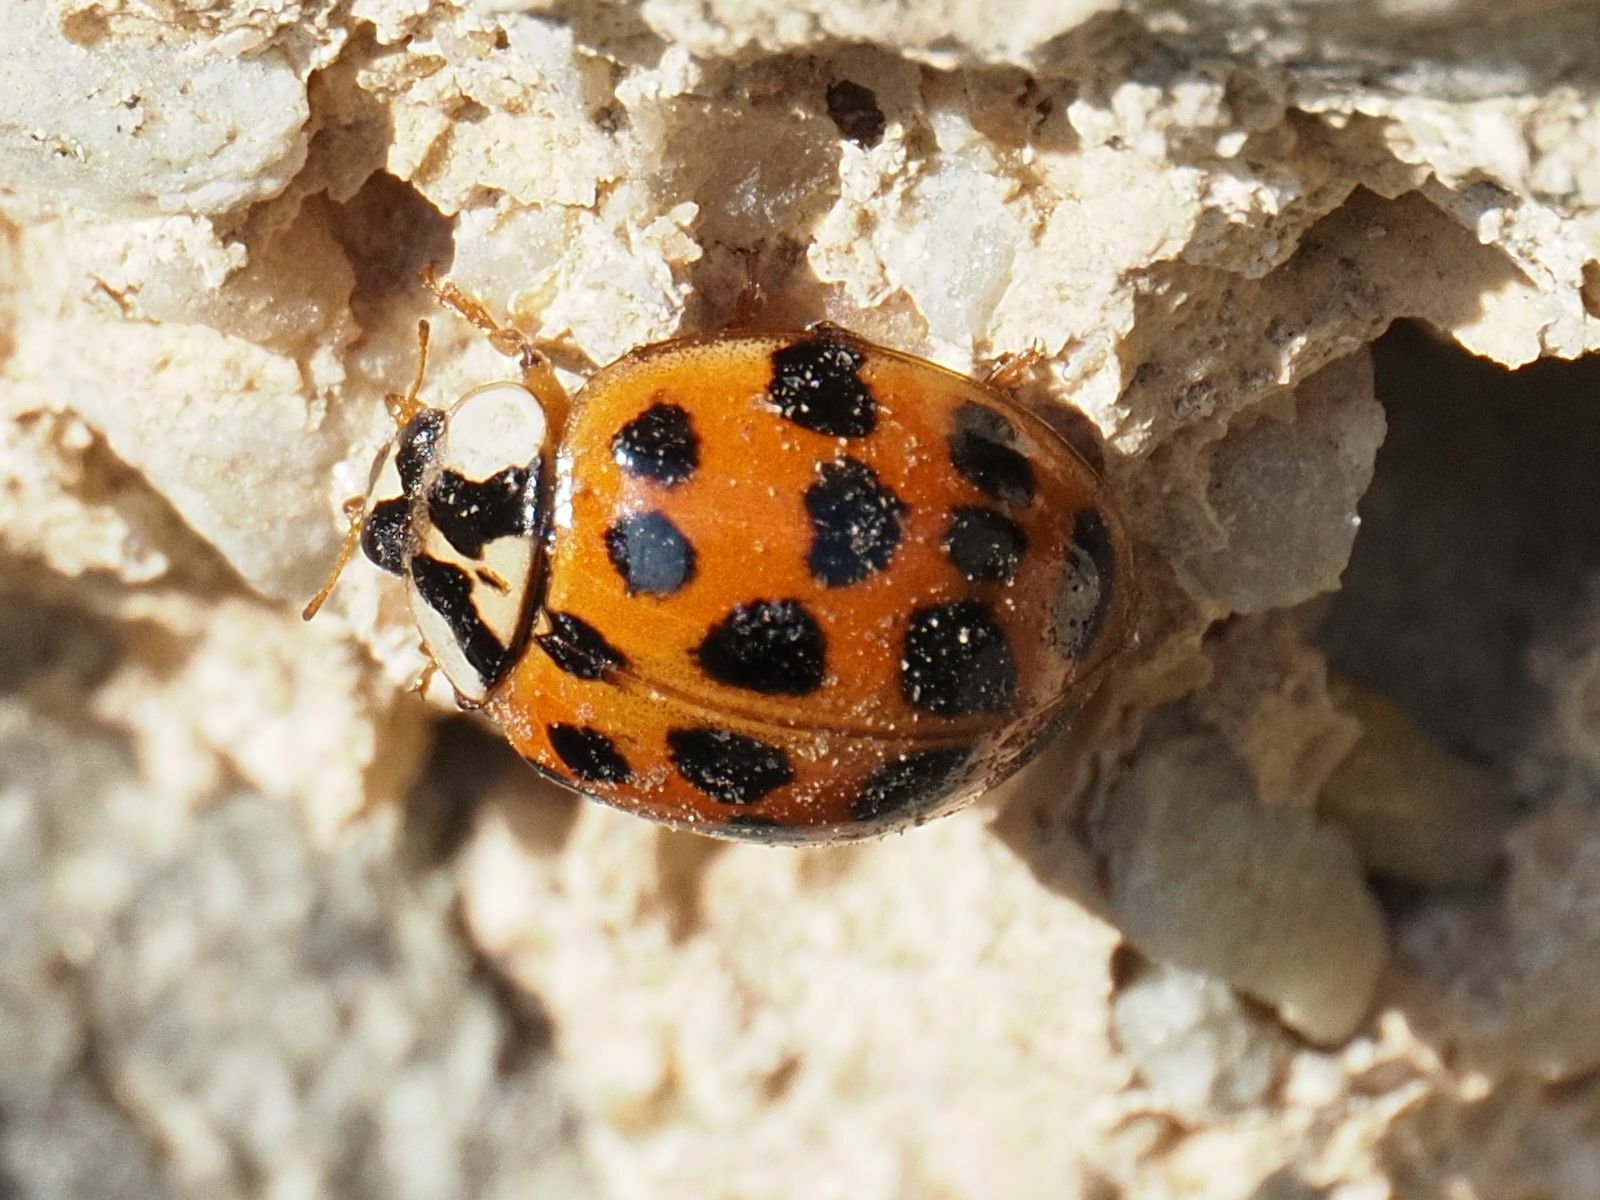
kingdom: Animalia
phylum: Arthropoda
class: Insecta
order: Coleoptera
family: Coccinellidae
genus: Harmonia
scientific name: Harmonia axyridis
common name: Harlequin ladybird
